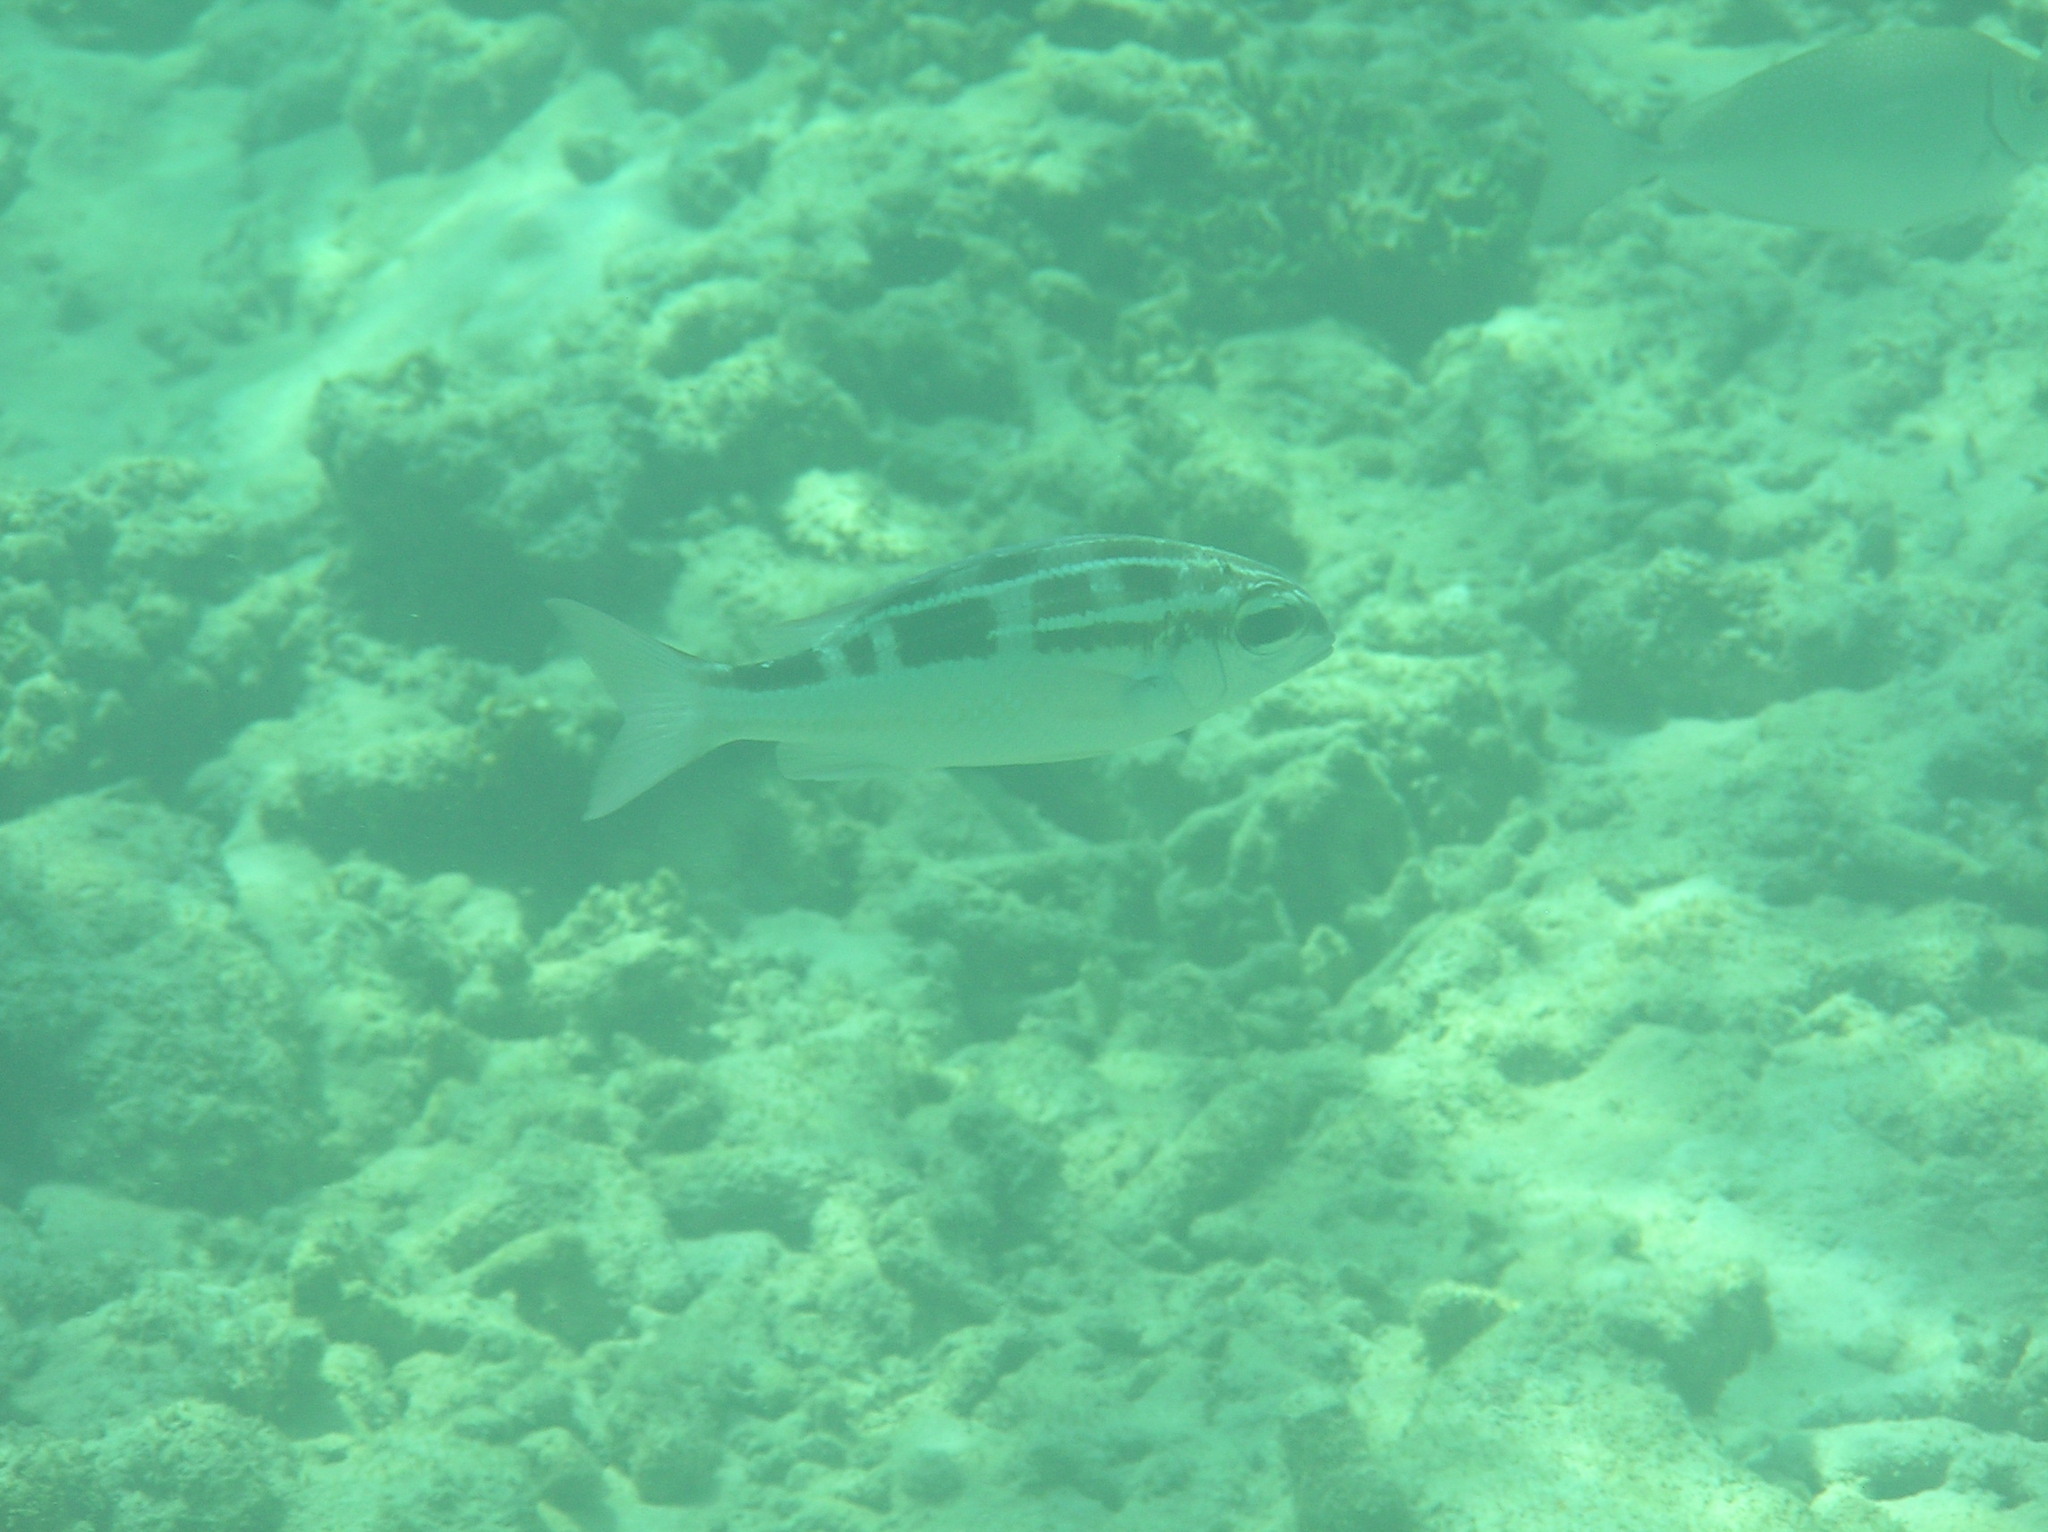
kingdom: Animalia
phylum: Chordata
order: Perciformes
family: Nemipteridae
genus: Scolopsis
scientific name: Scolopsis lineata
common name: Striped monocle bream
